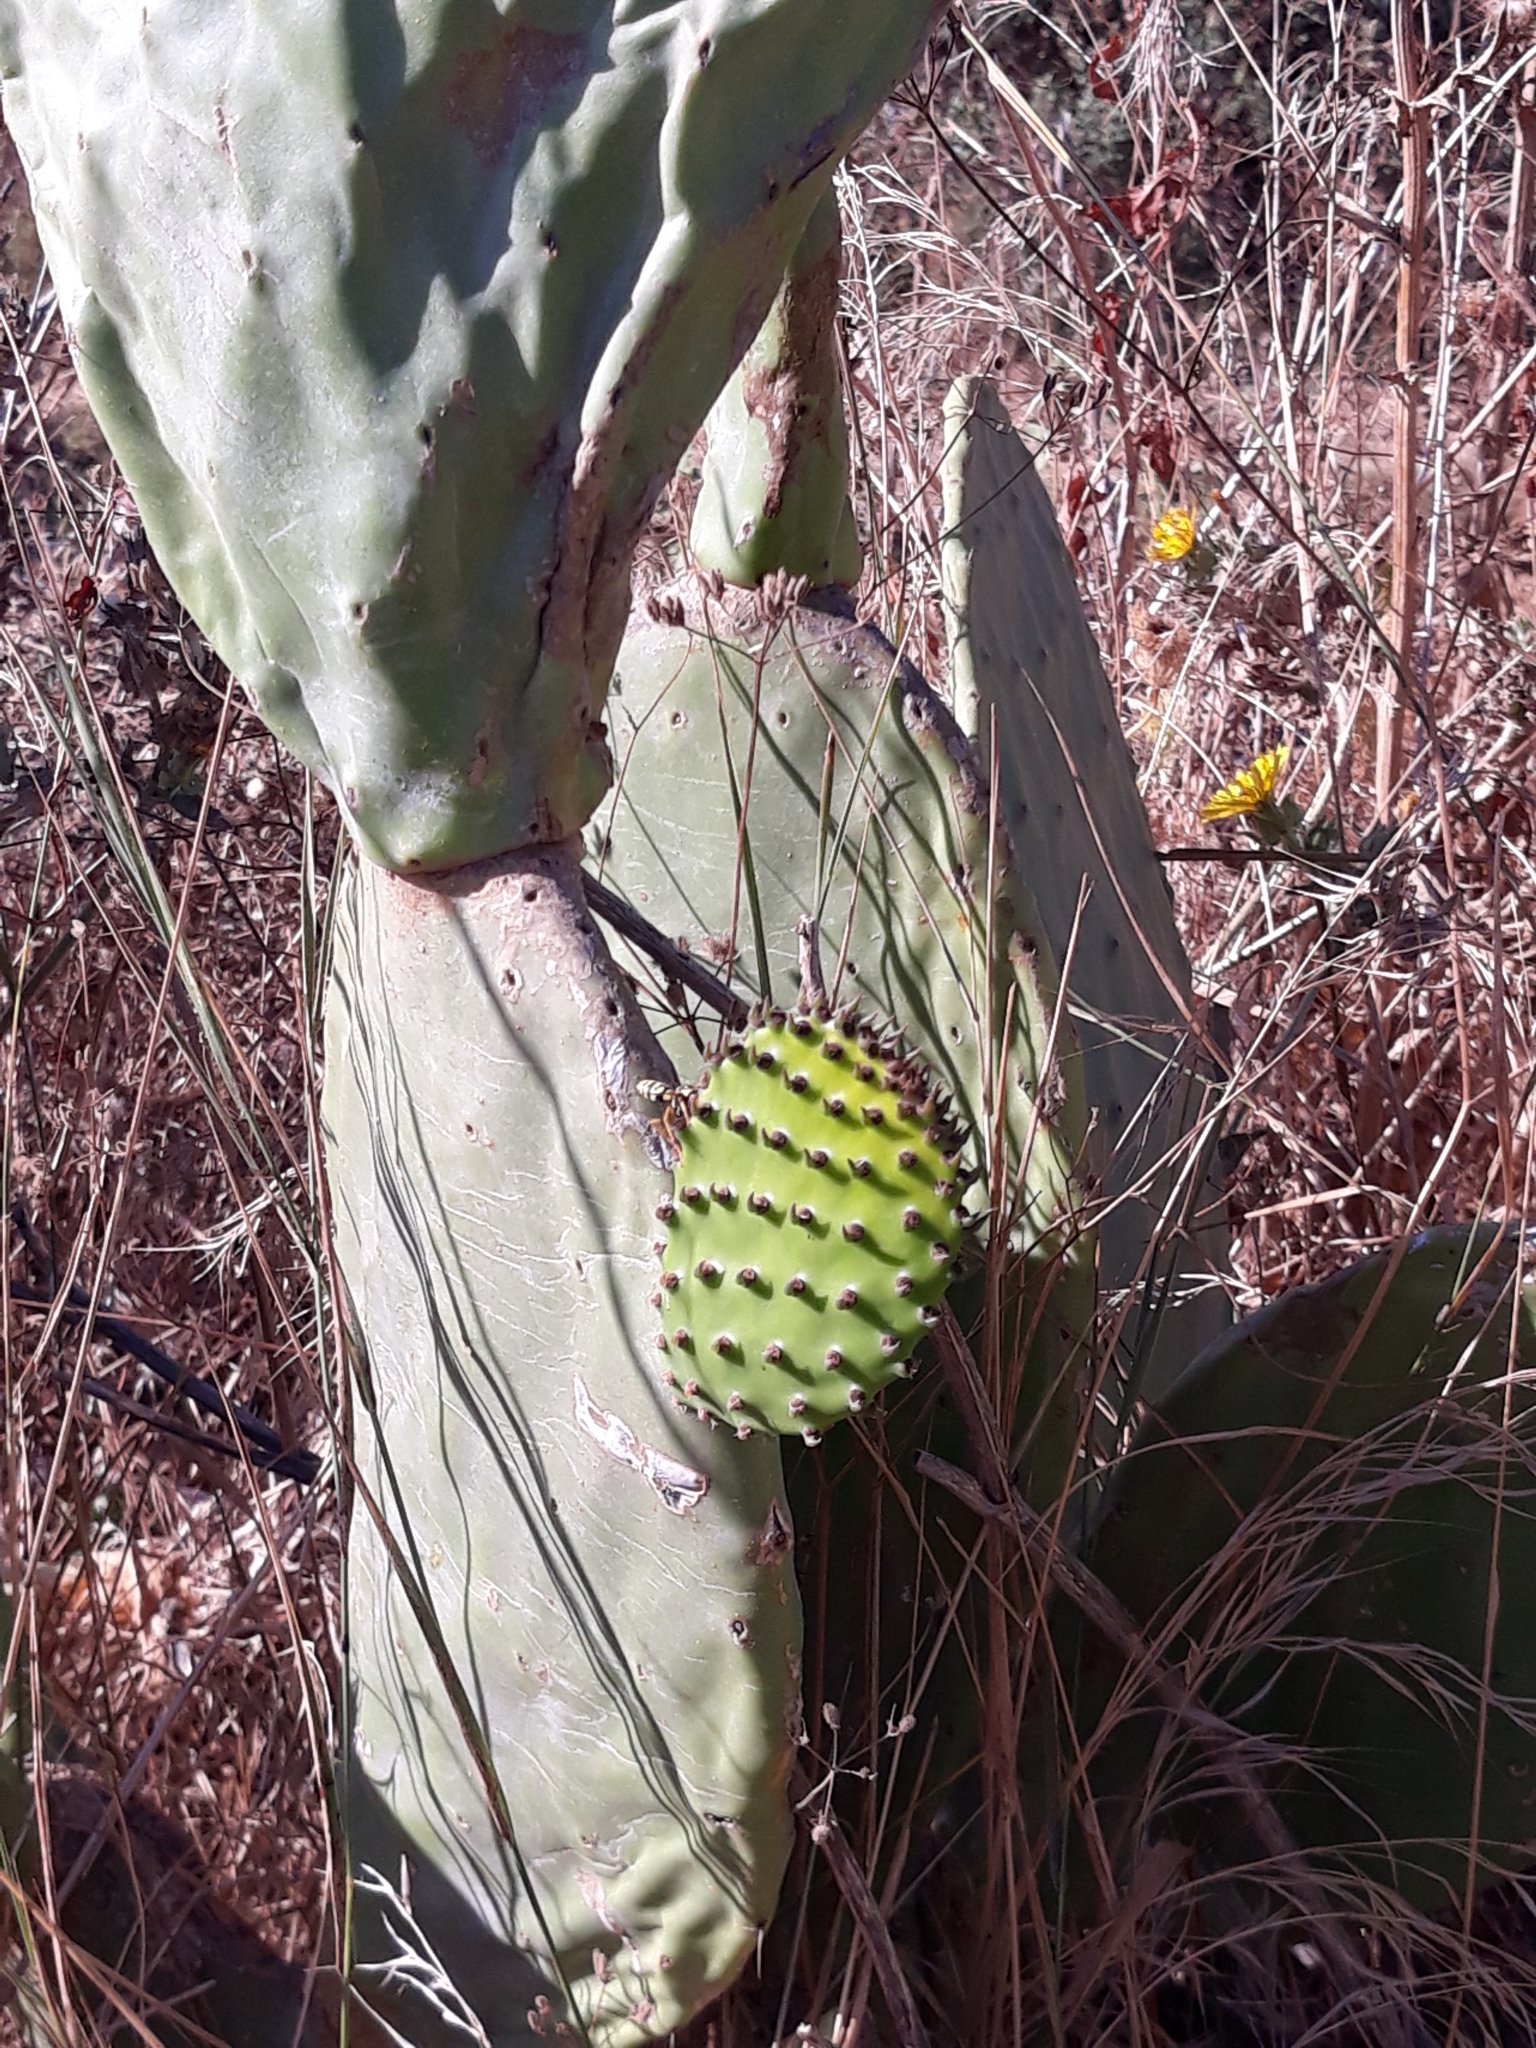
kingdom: Plantae
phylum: Tracheophyta
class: Magnoliopsida
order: Caryophyllales
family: Cactaceae
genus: Opuntia
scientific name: Opuntia ficus-indica
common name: Barbary fig
